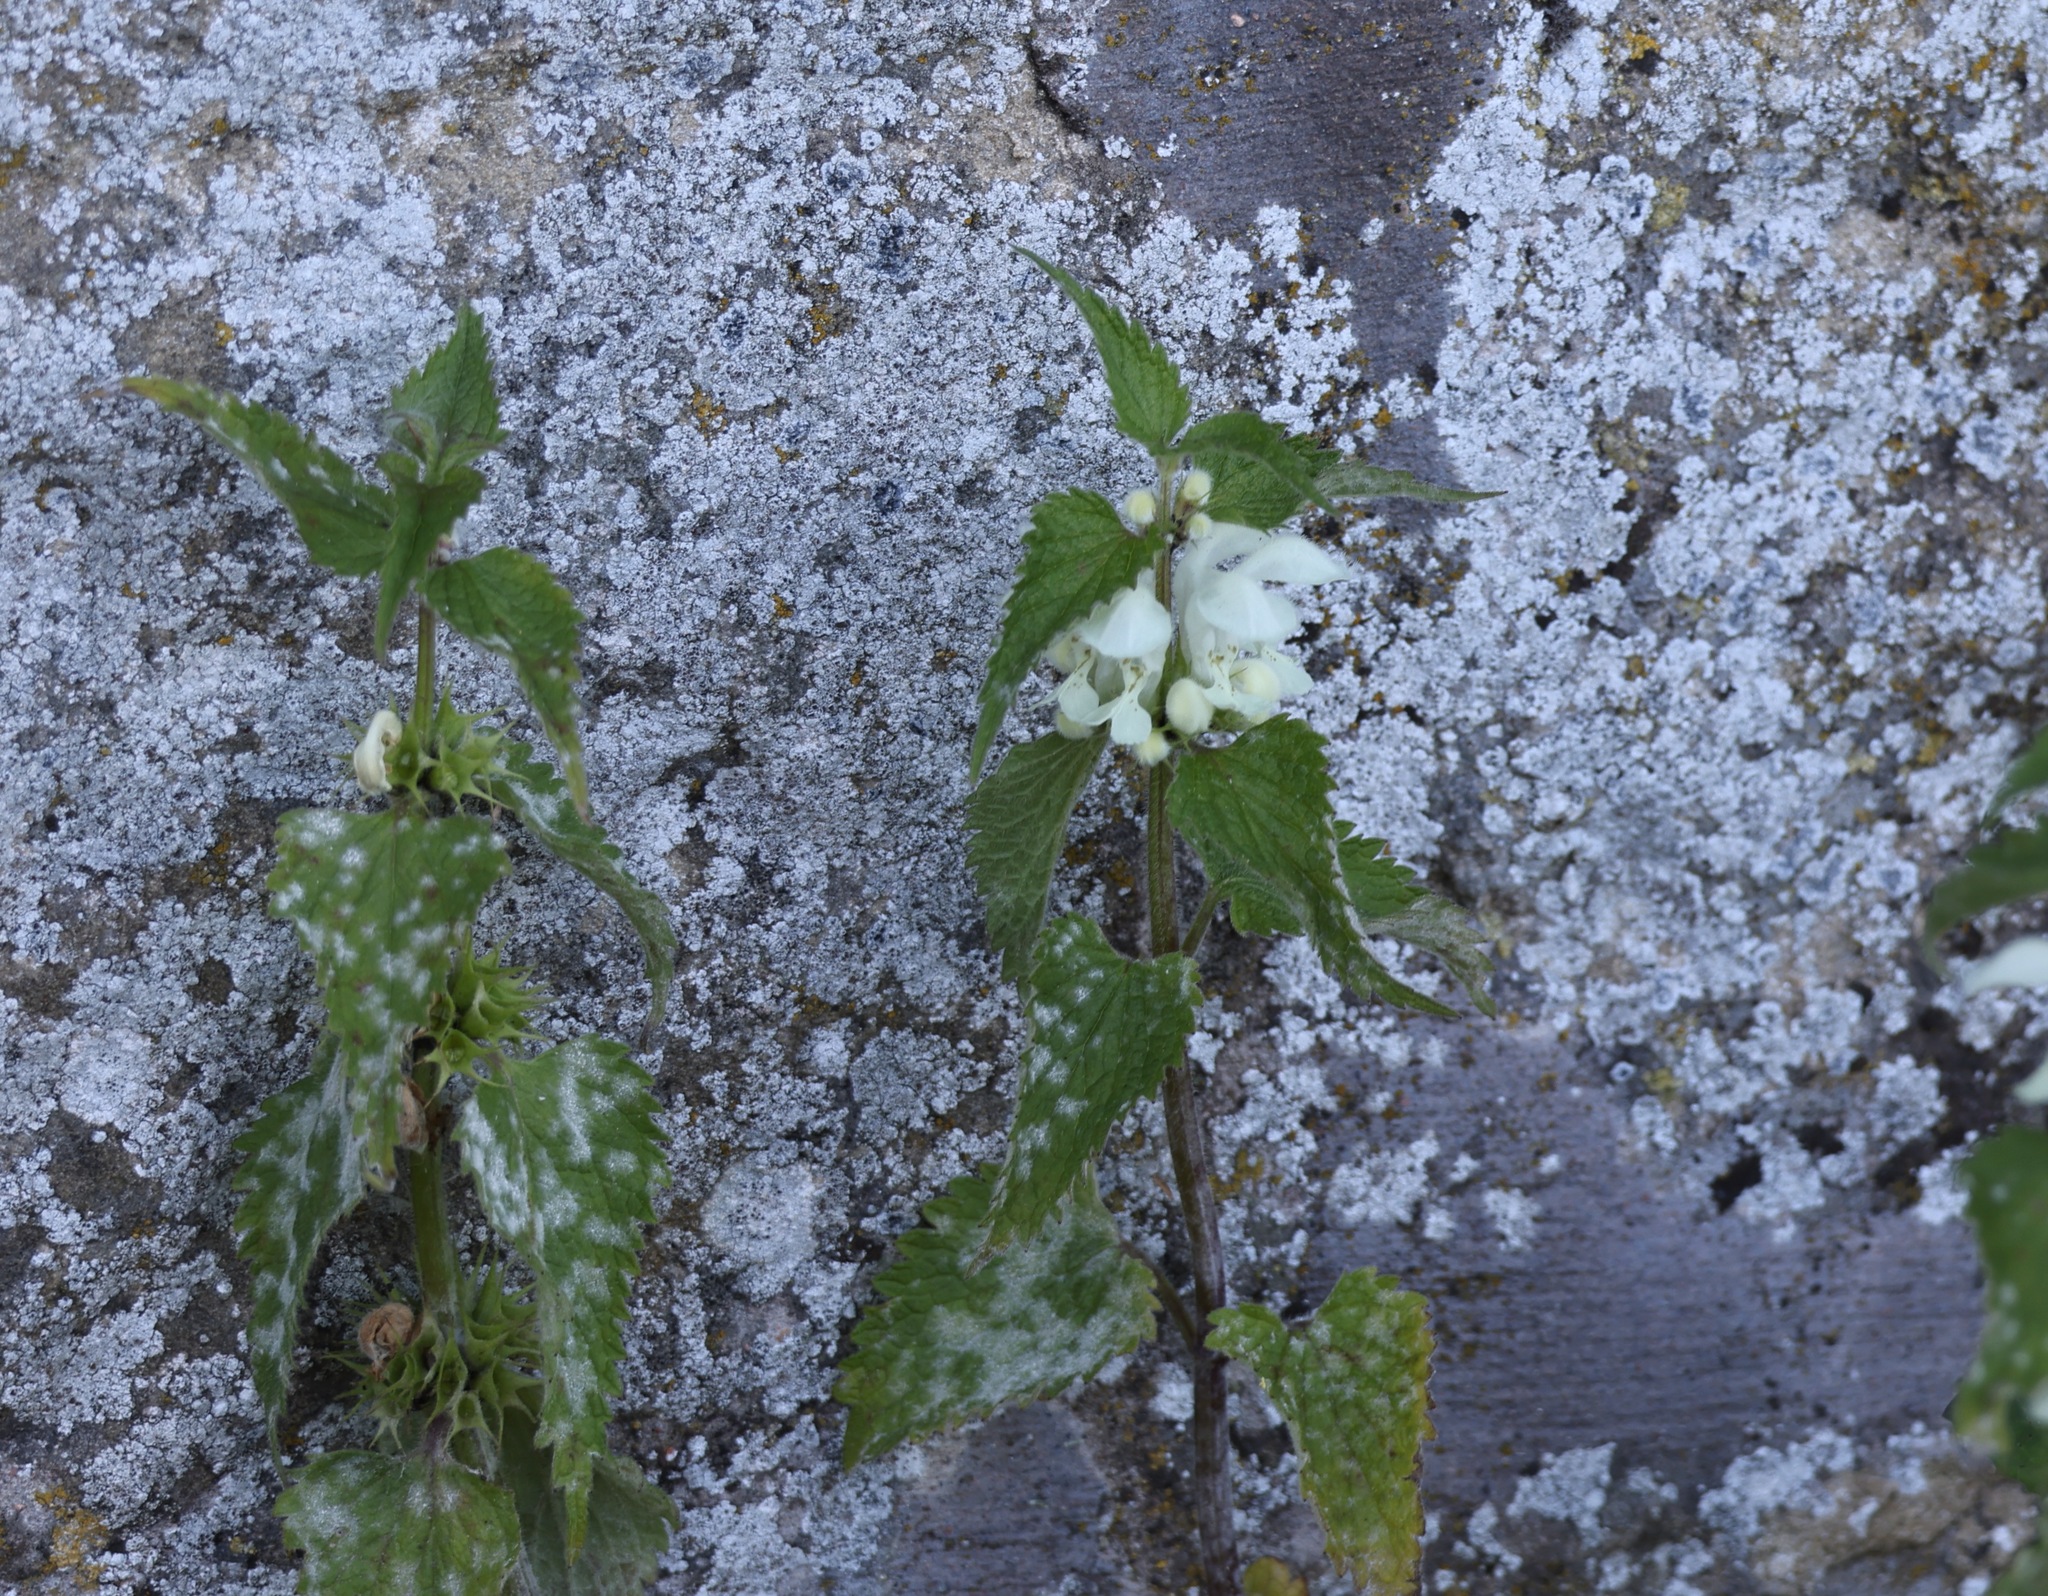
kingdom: Plantae
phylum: Tracheophyta
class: Magnoliopsida
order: Lamiales
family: Lamiaceae
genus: Lamium
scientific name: Lamium album
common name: White dead-nettle
